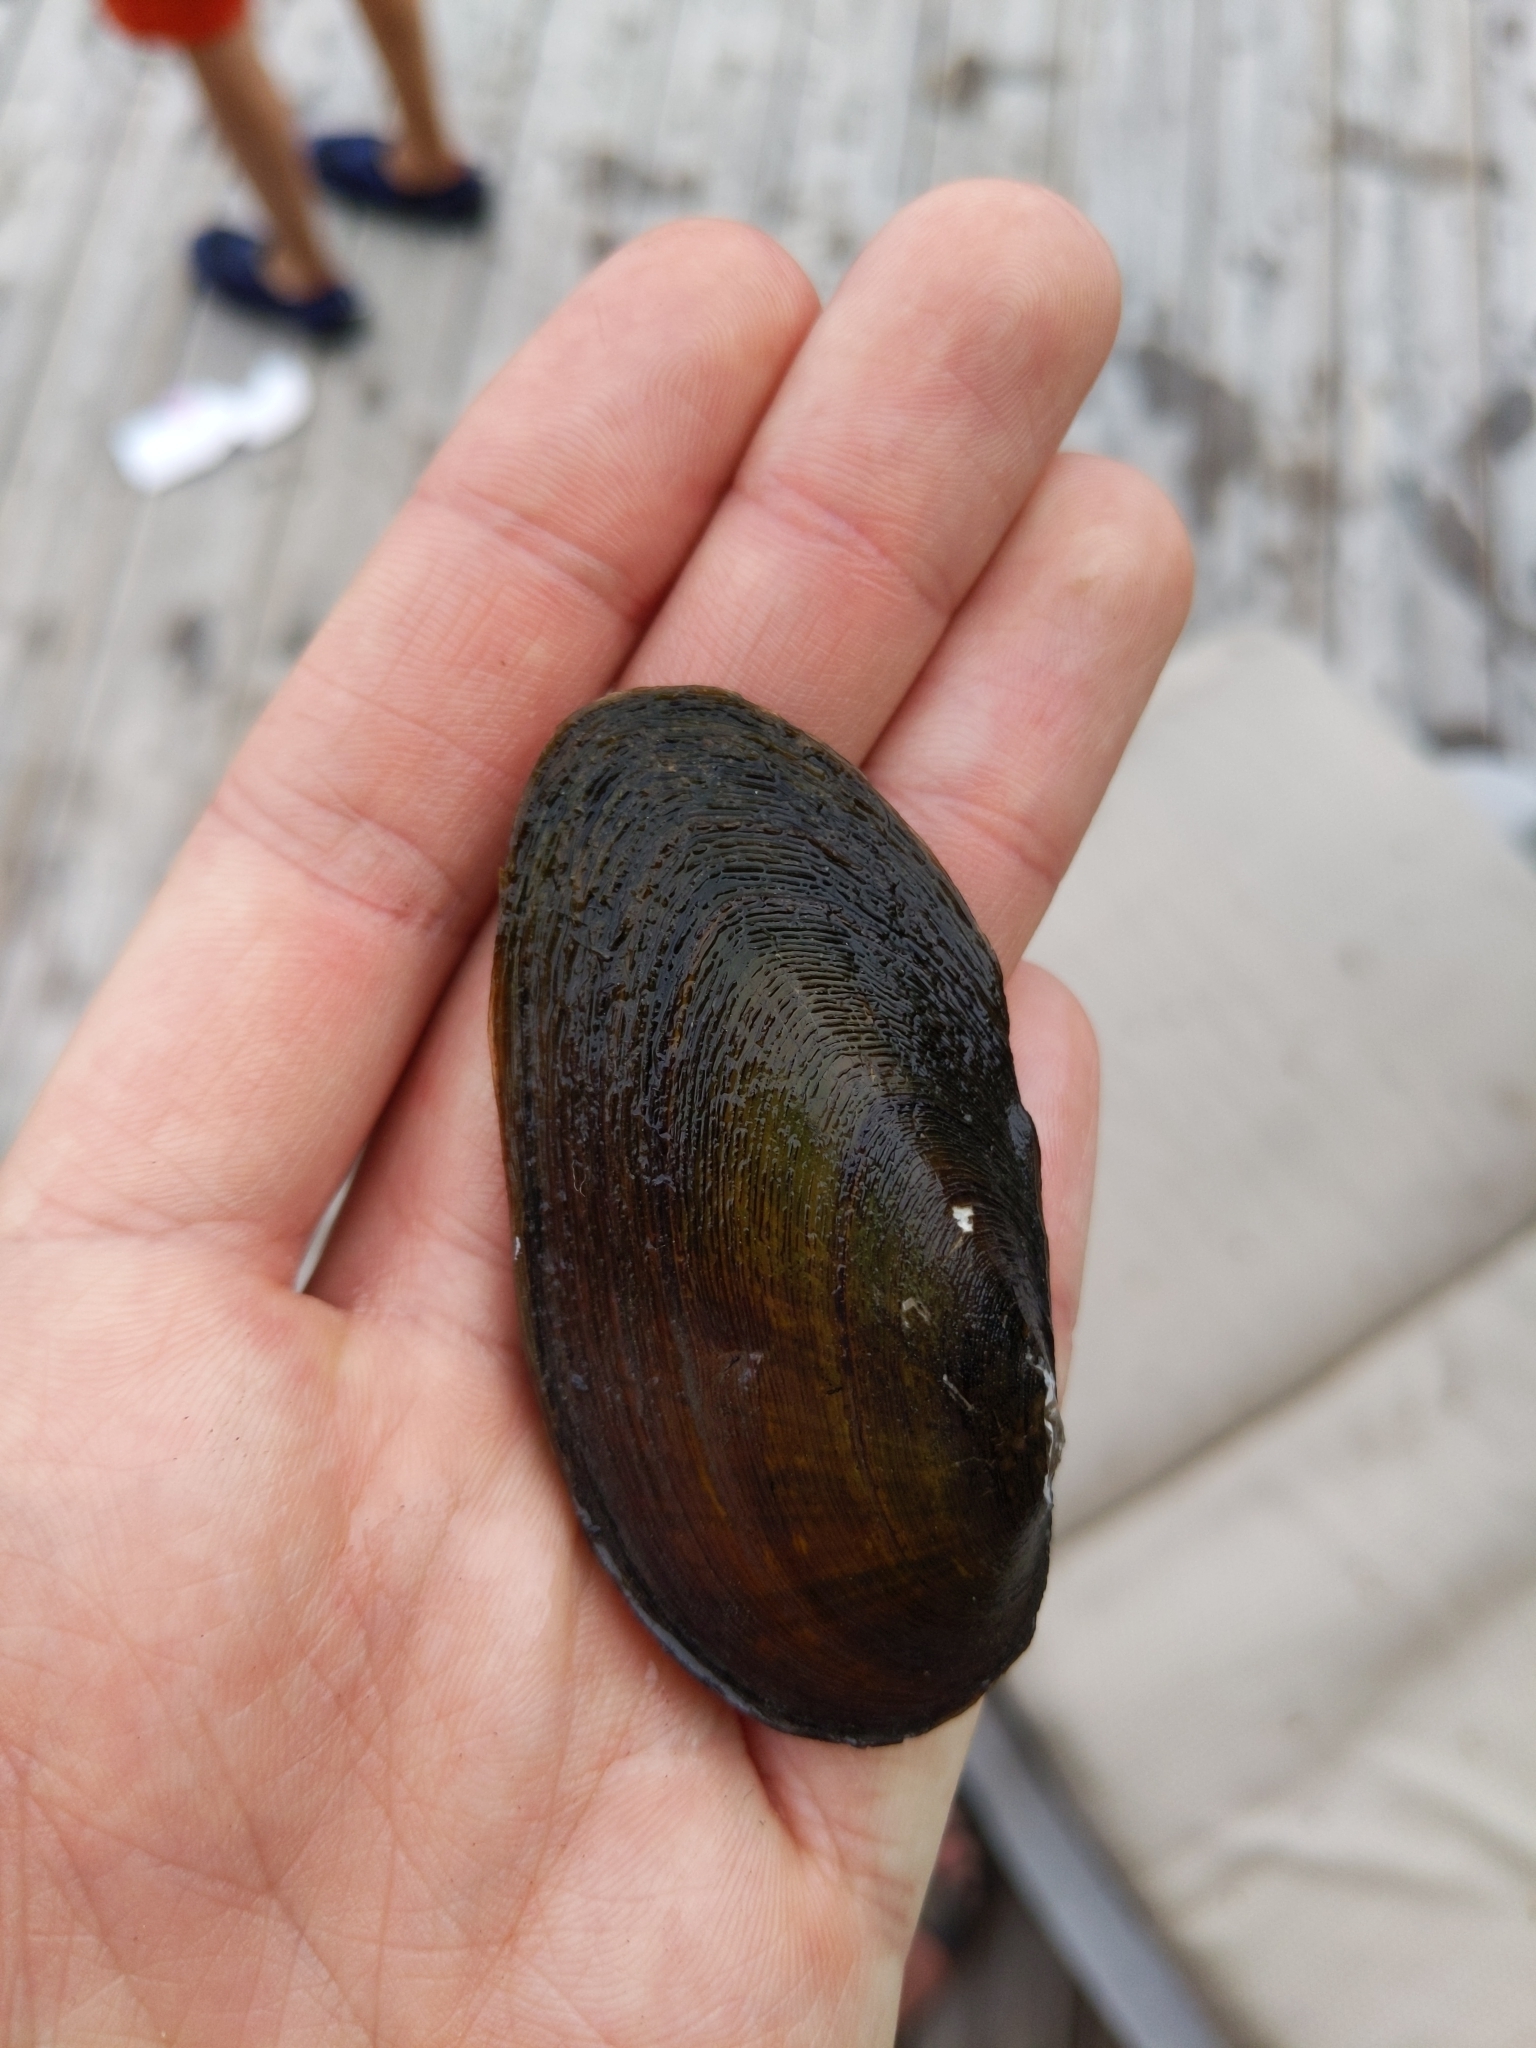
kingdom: Animalia
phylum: Mollusca
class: Bivalvia
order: Unionida
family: Unionidae
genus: Elliptio
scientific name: Elliptio complanata
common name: Eastern elliptio
